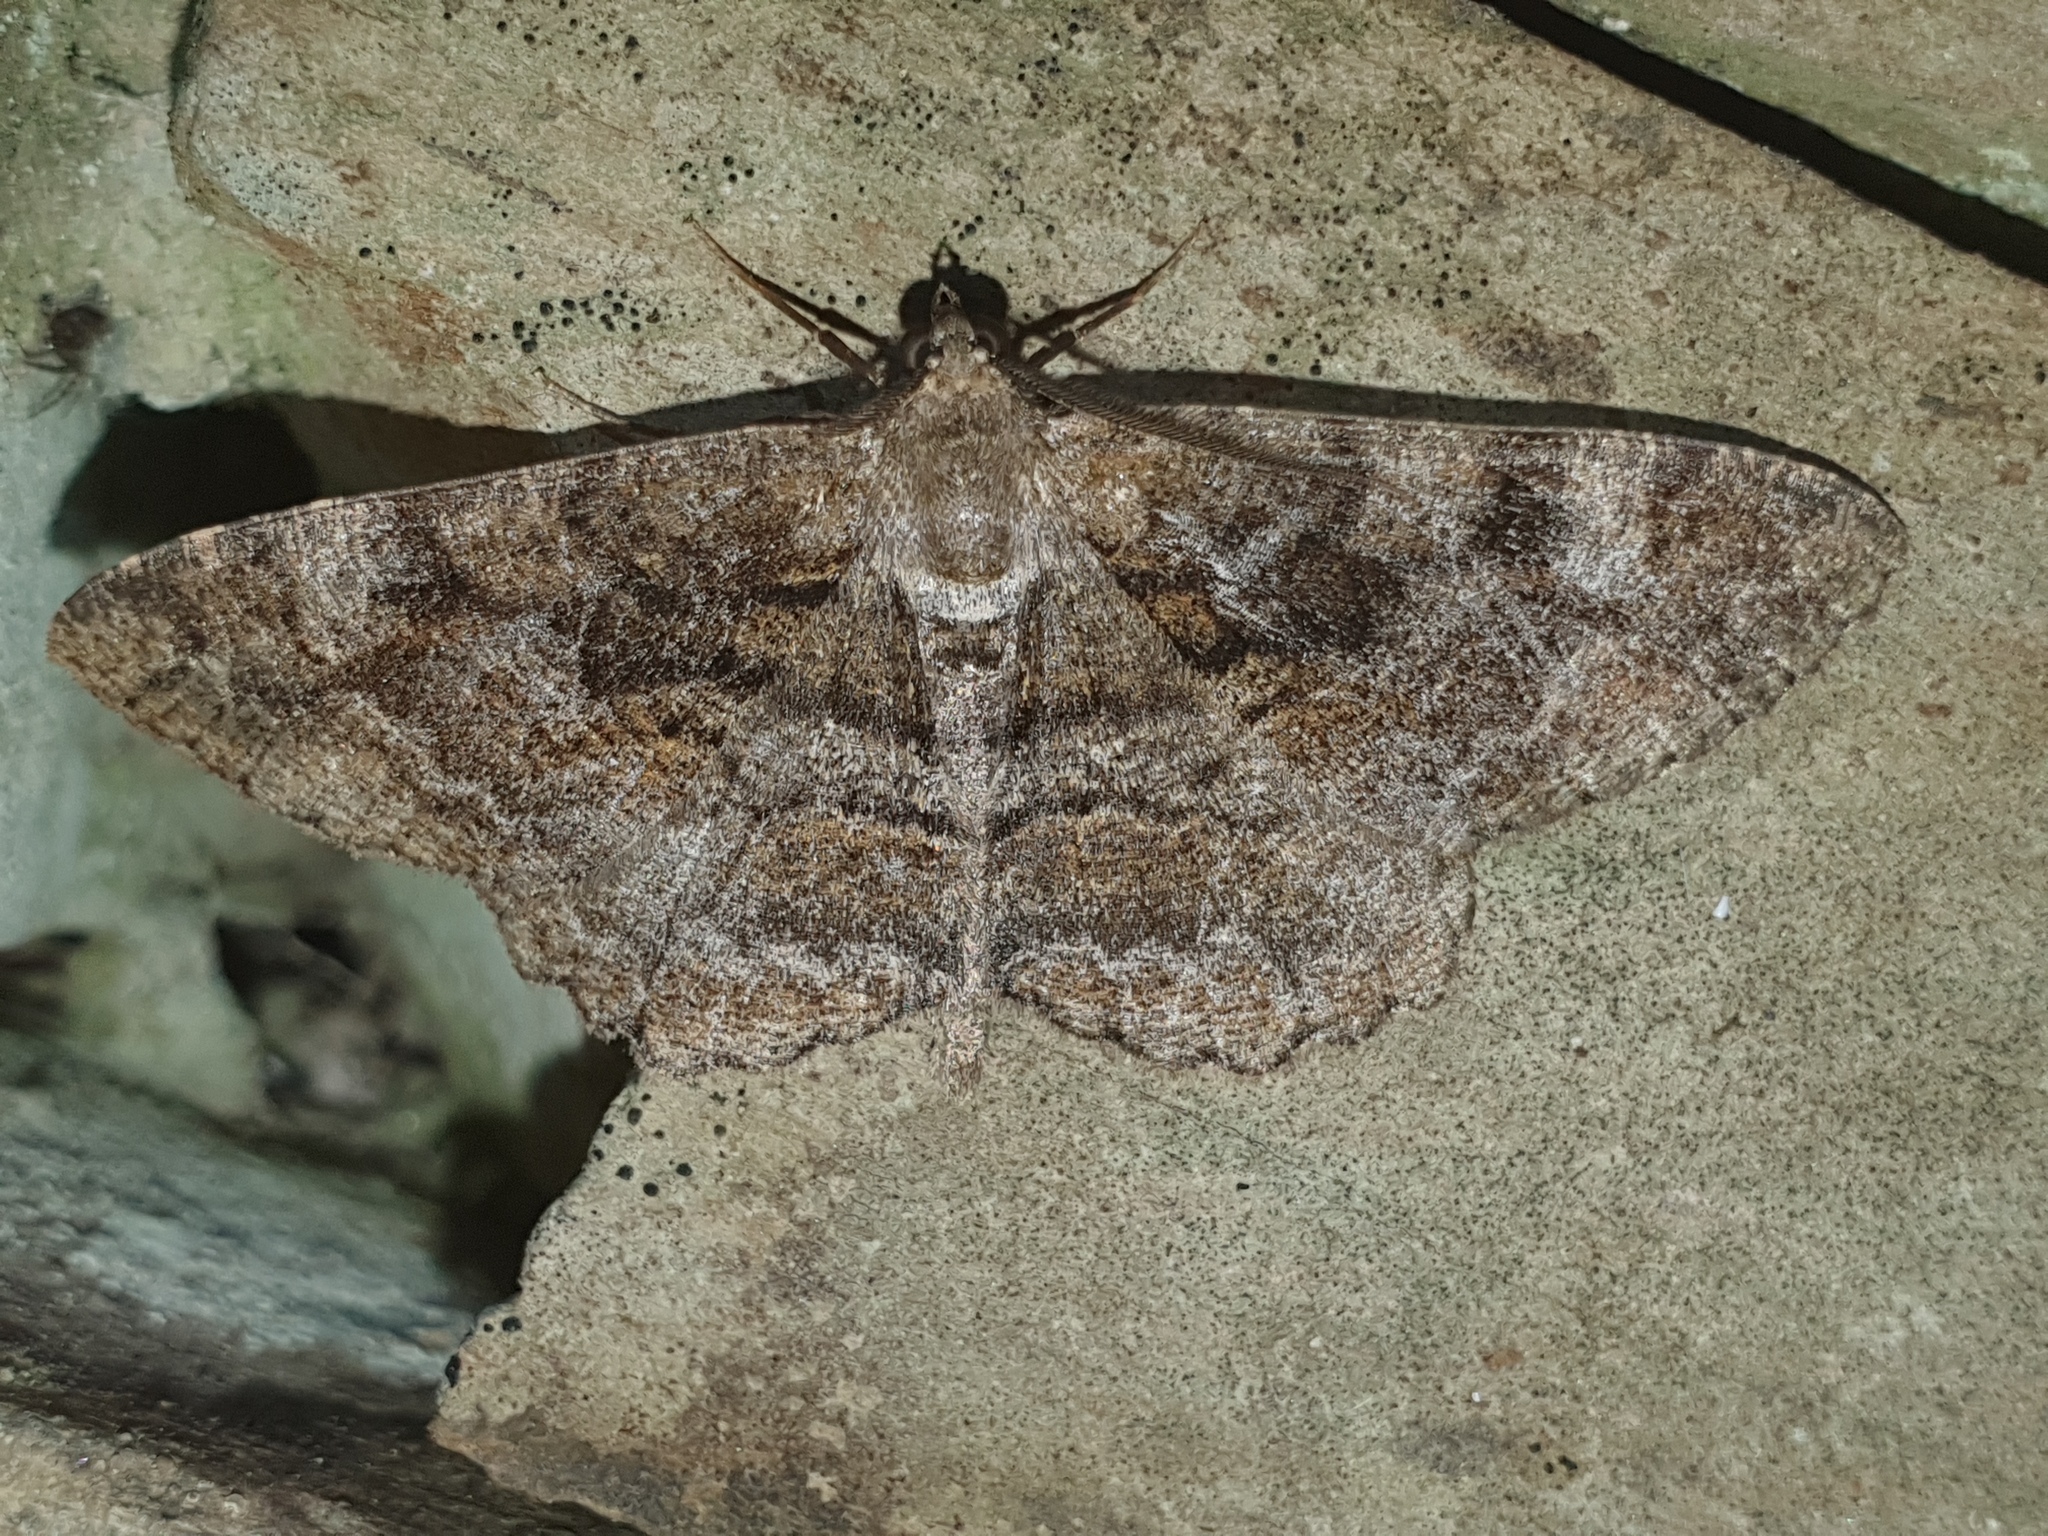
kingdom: Animalia
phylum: Arthropoda
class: Insecta
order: Lepidoptera
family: Geometridae
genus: Alcis
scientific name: Alcis repandata
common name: Mottled beauty
